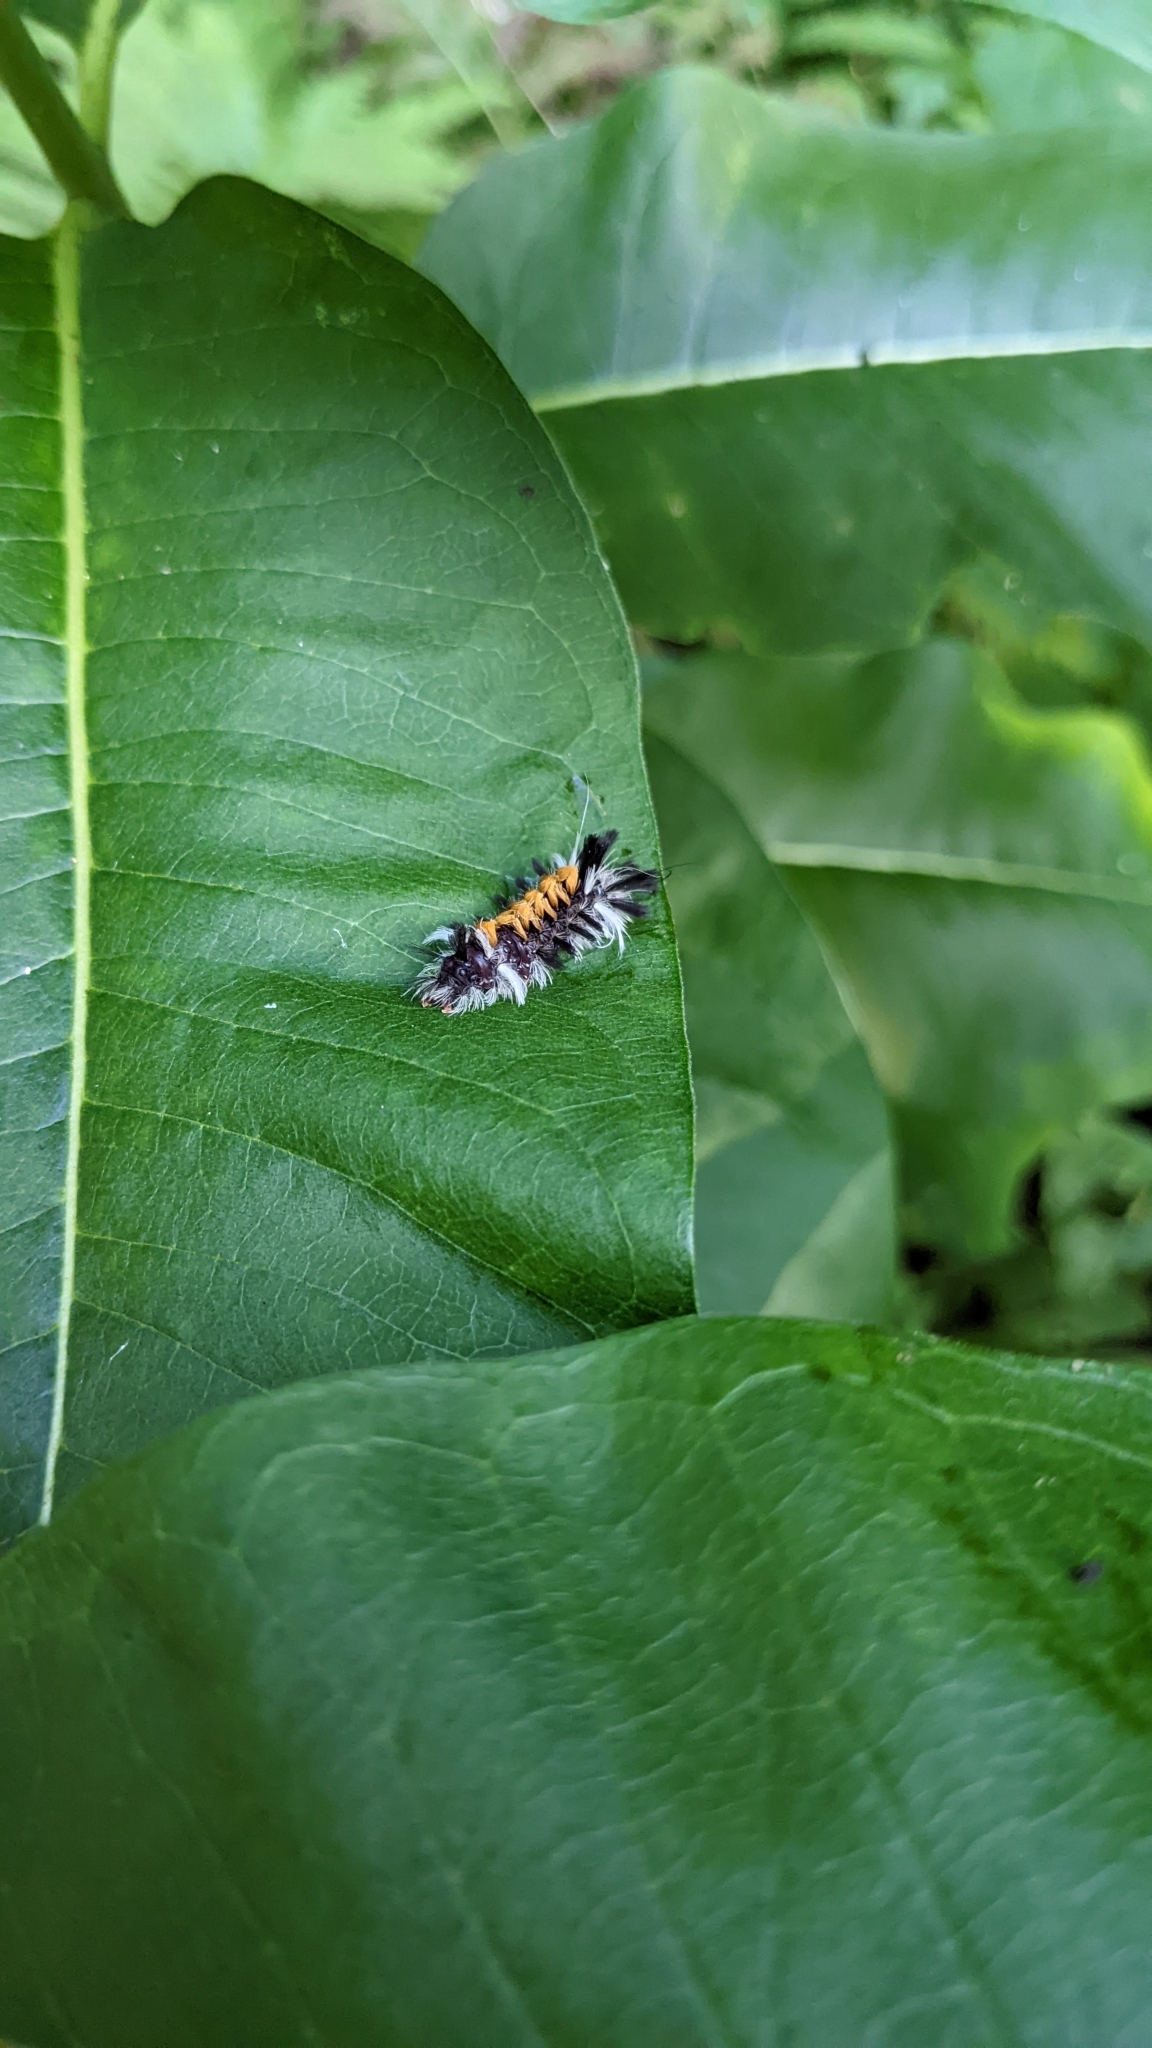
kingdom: Animalia
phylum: Arthropoda
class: Insecta
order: Lepidoptera
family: Erebidae
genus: Euchaetes
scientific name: Euchaetes egle
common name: Milkweed tussock moth
